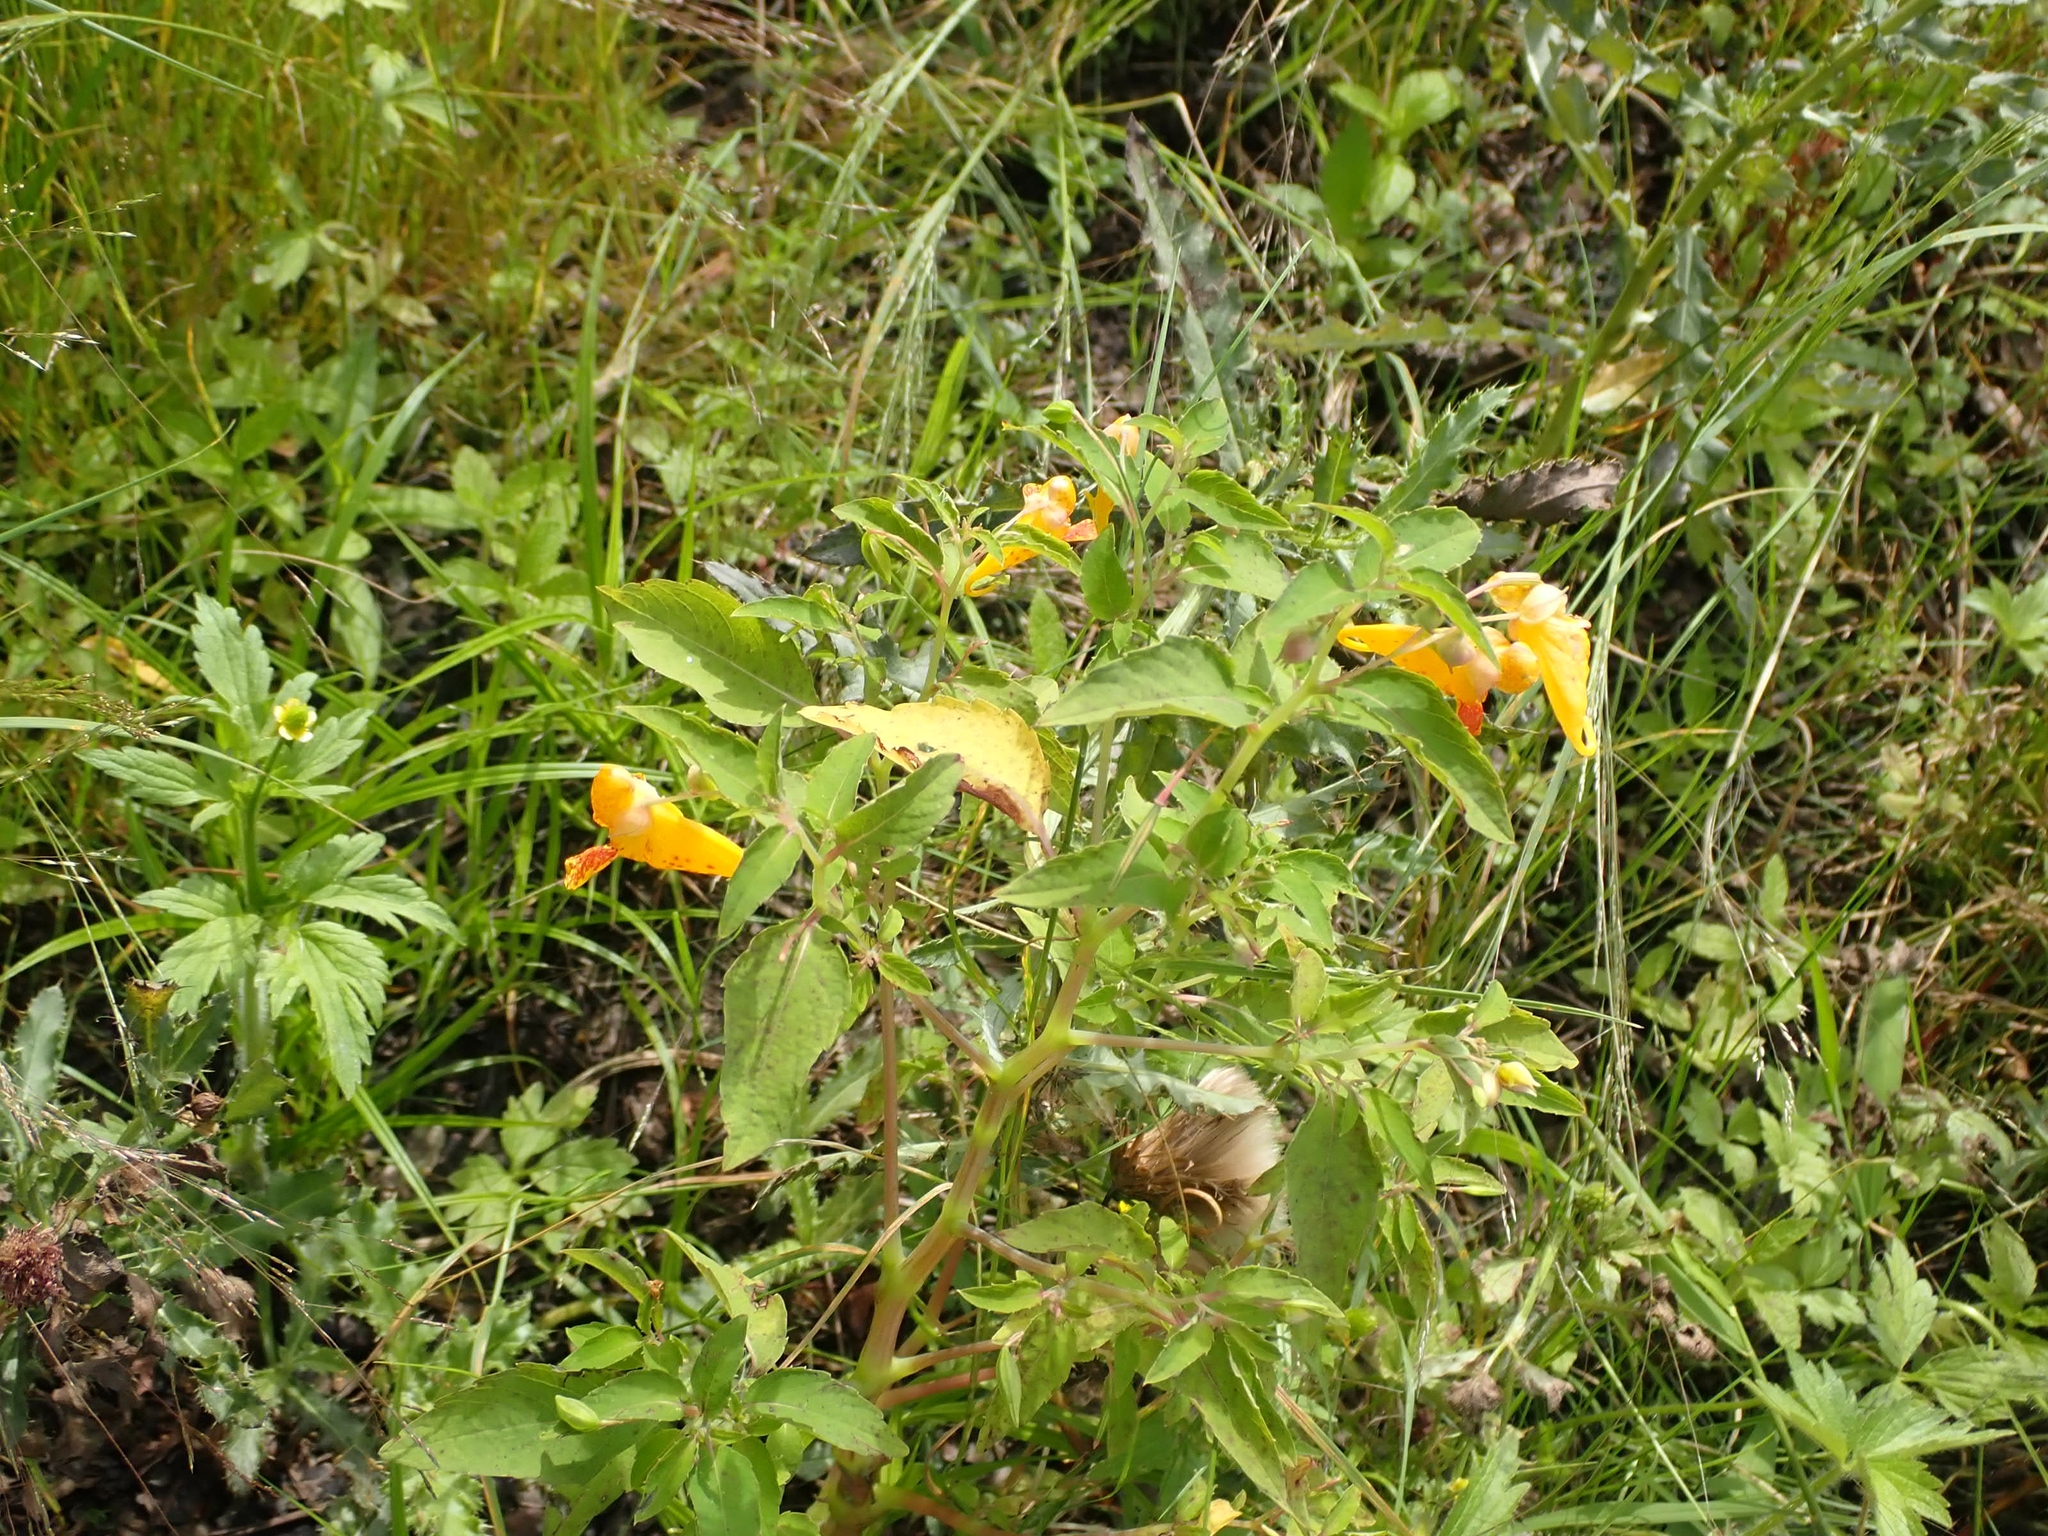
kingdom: Plantae
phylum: Tracheophyta
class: Magnoliopsida
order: Ericales
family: Balsaminaceae
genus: Impatiens
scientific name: Impatiens capensis
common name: Orange balsam
